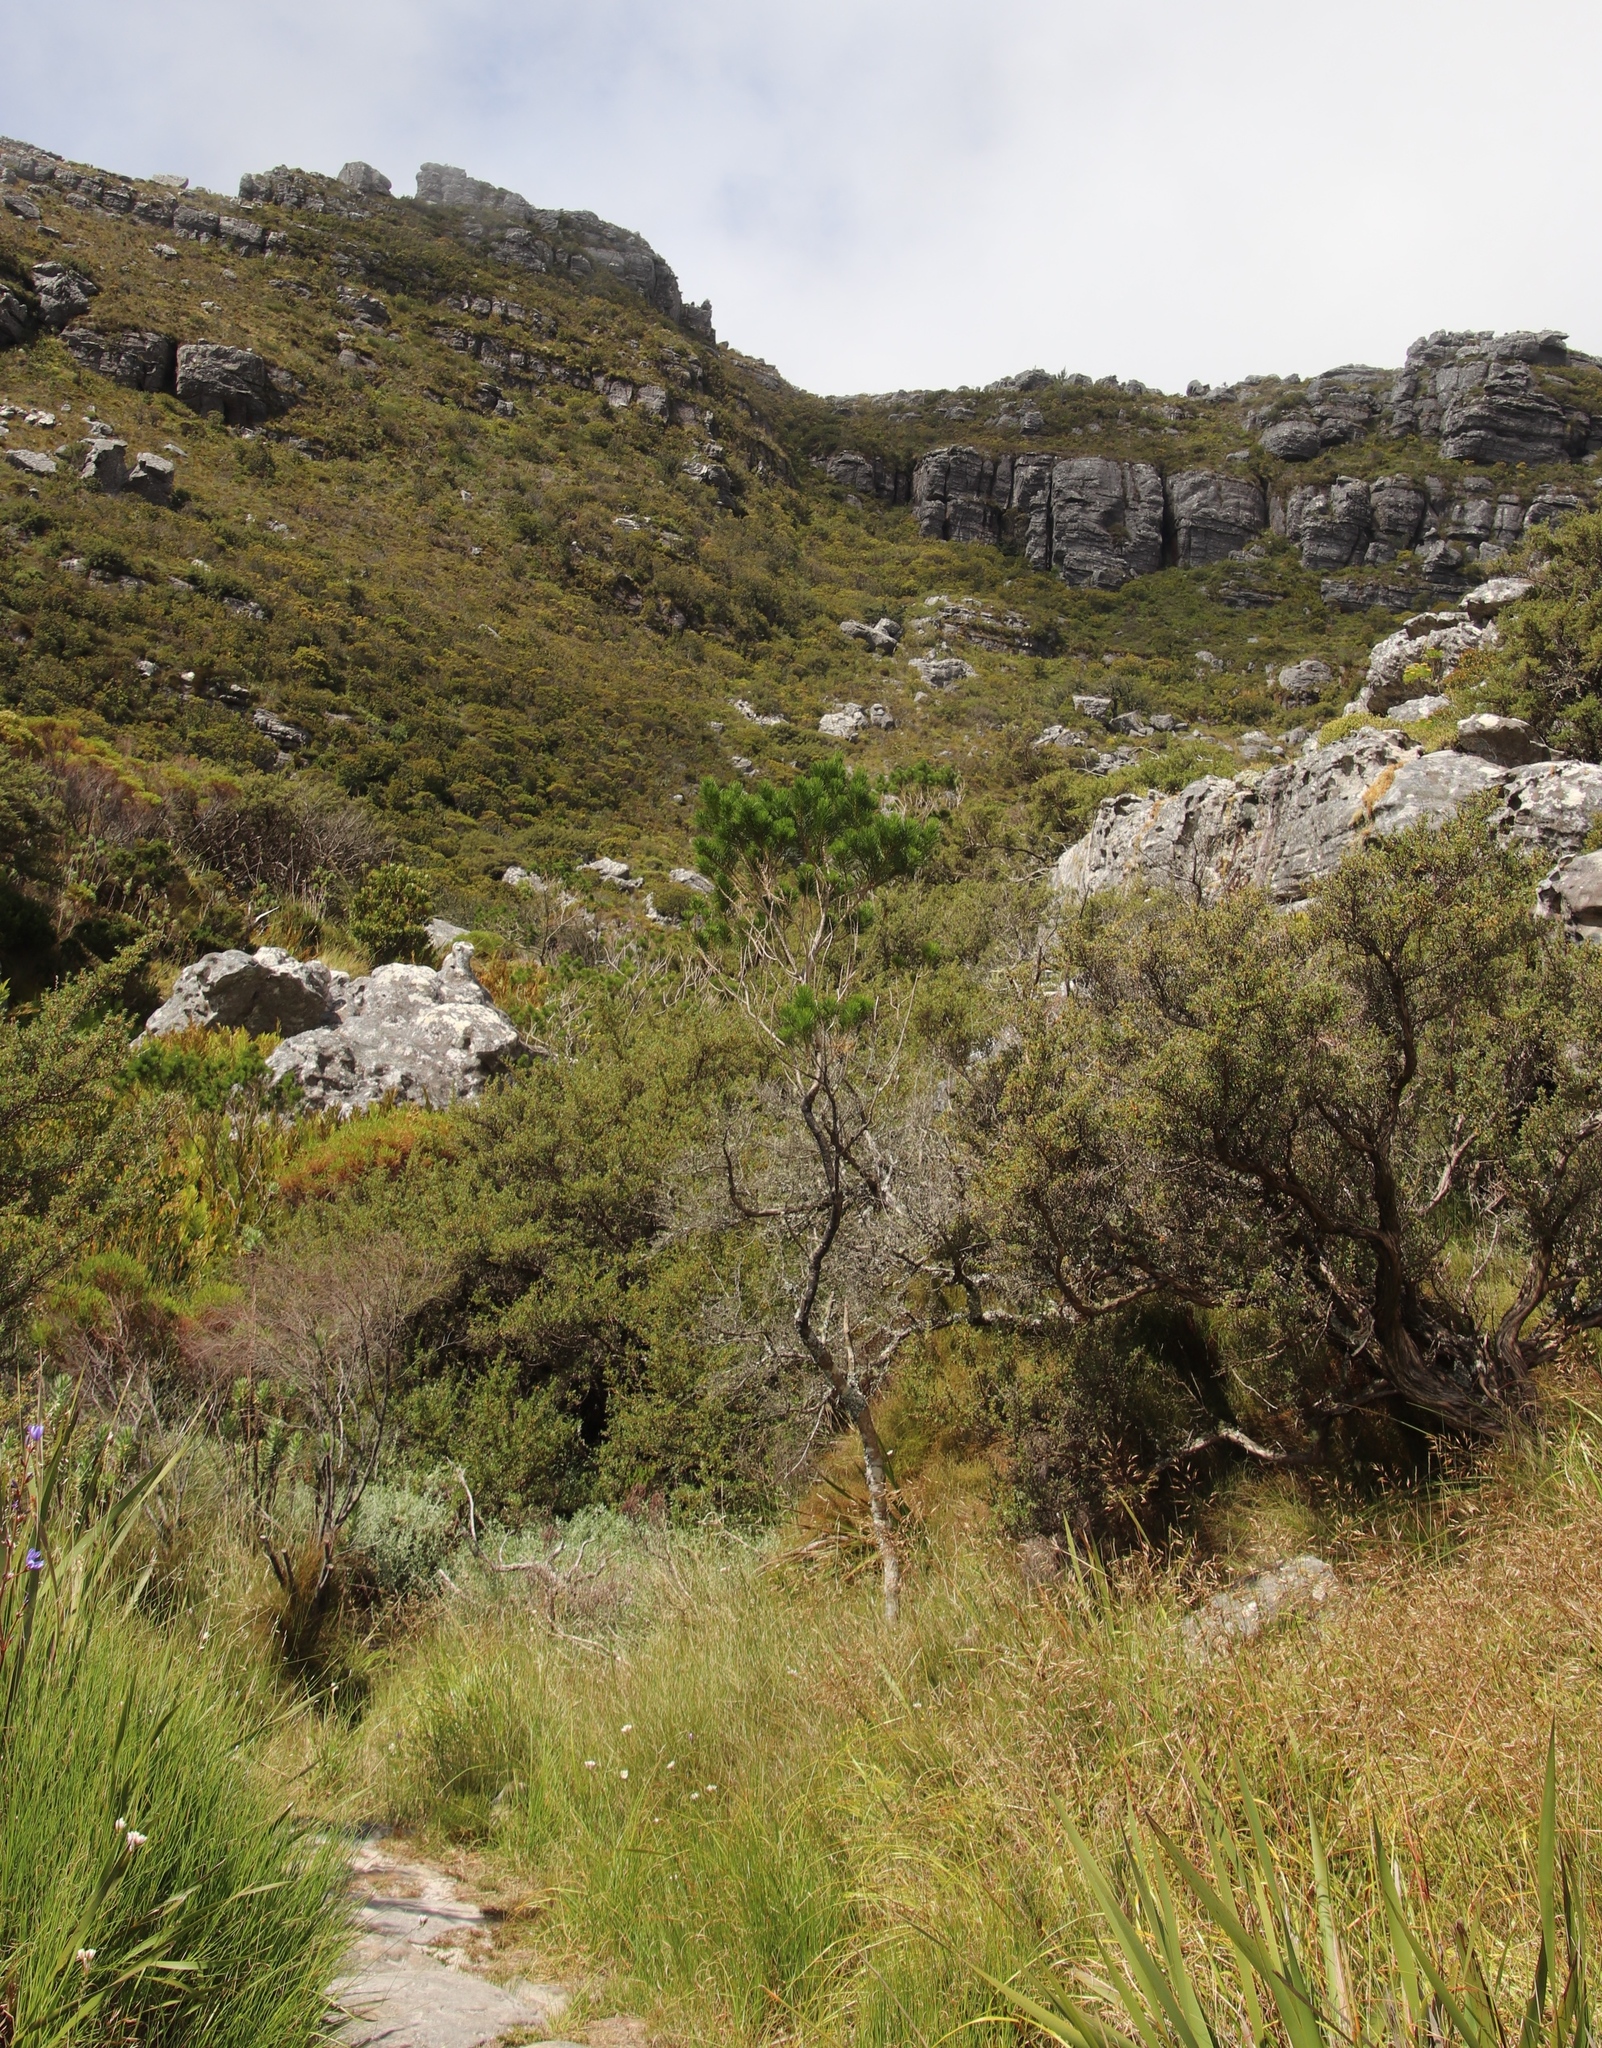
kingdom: Plantae
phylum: Tracheophyta
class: Magnoliopsida
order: Fabales
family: Fabaceae
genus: Psoralea
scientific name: Psoralea pinnata
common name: African scurfpea
